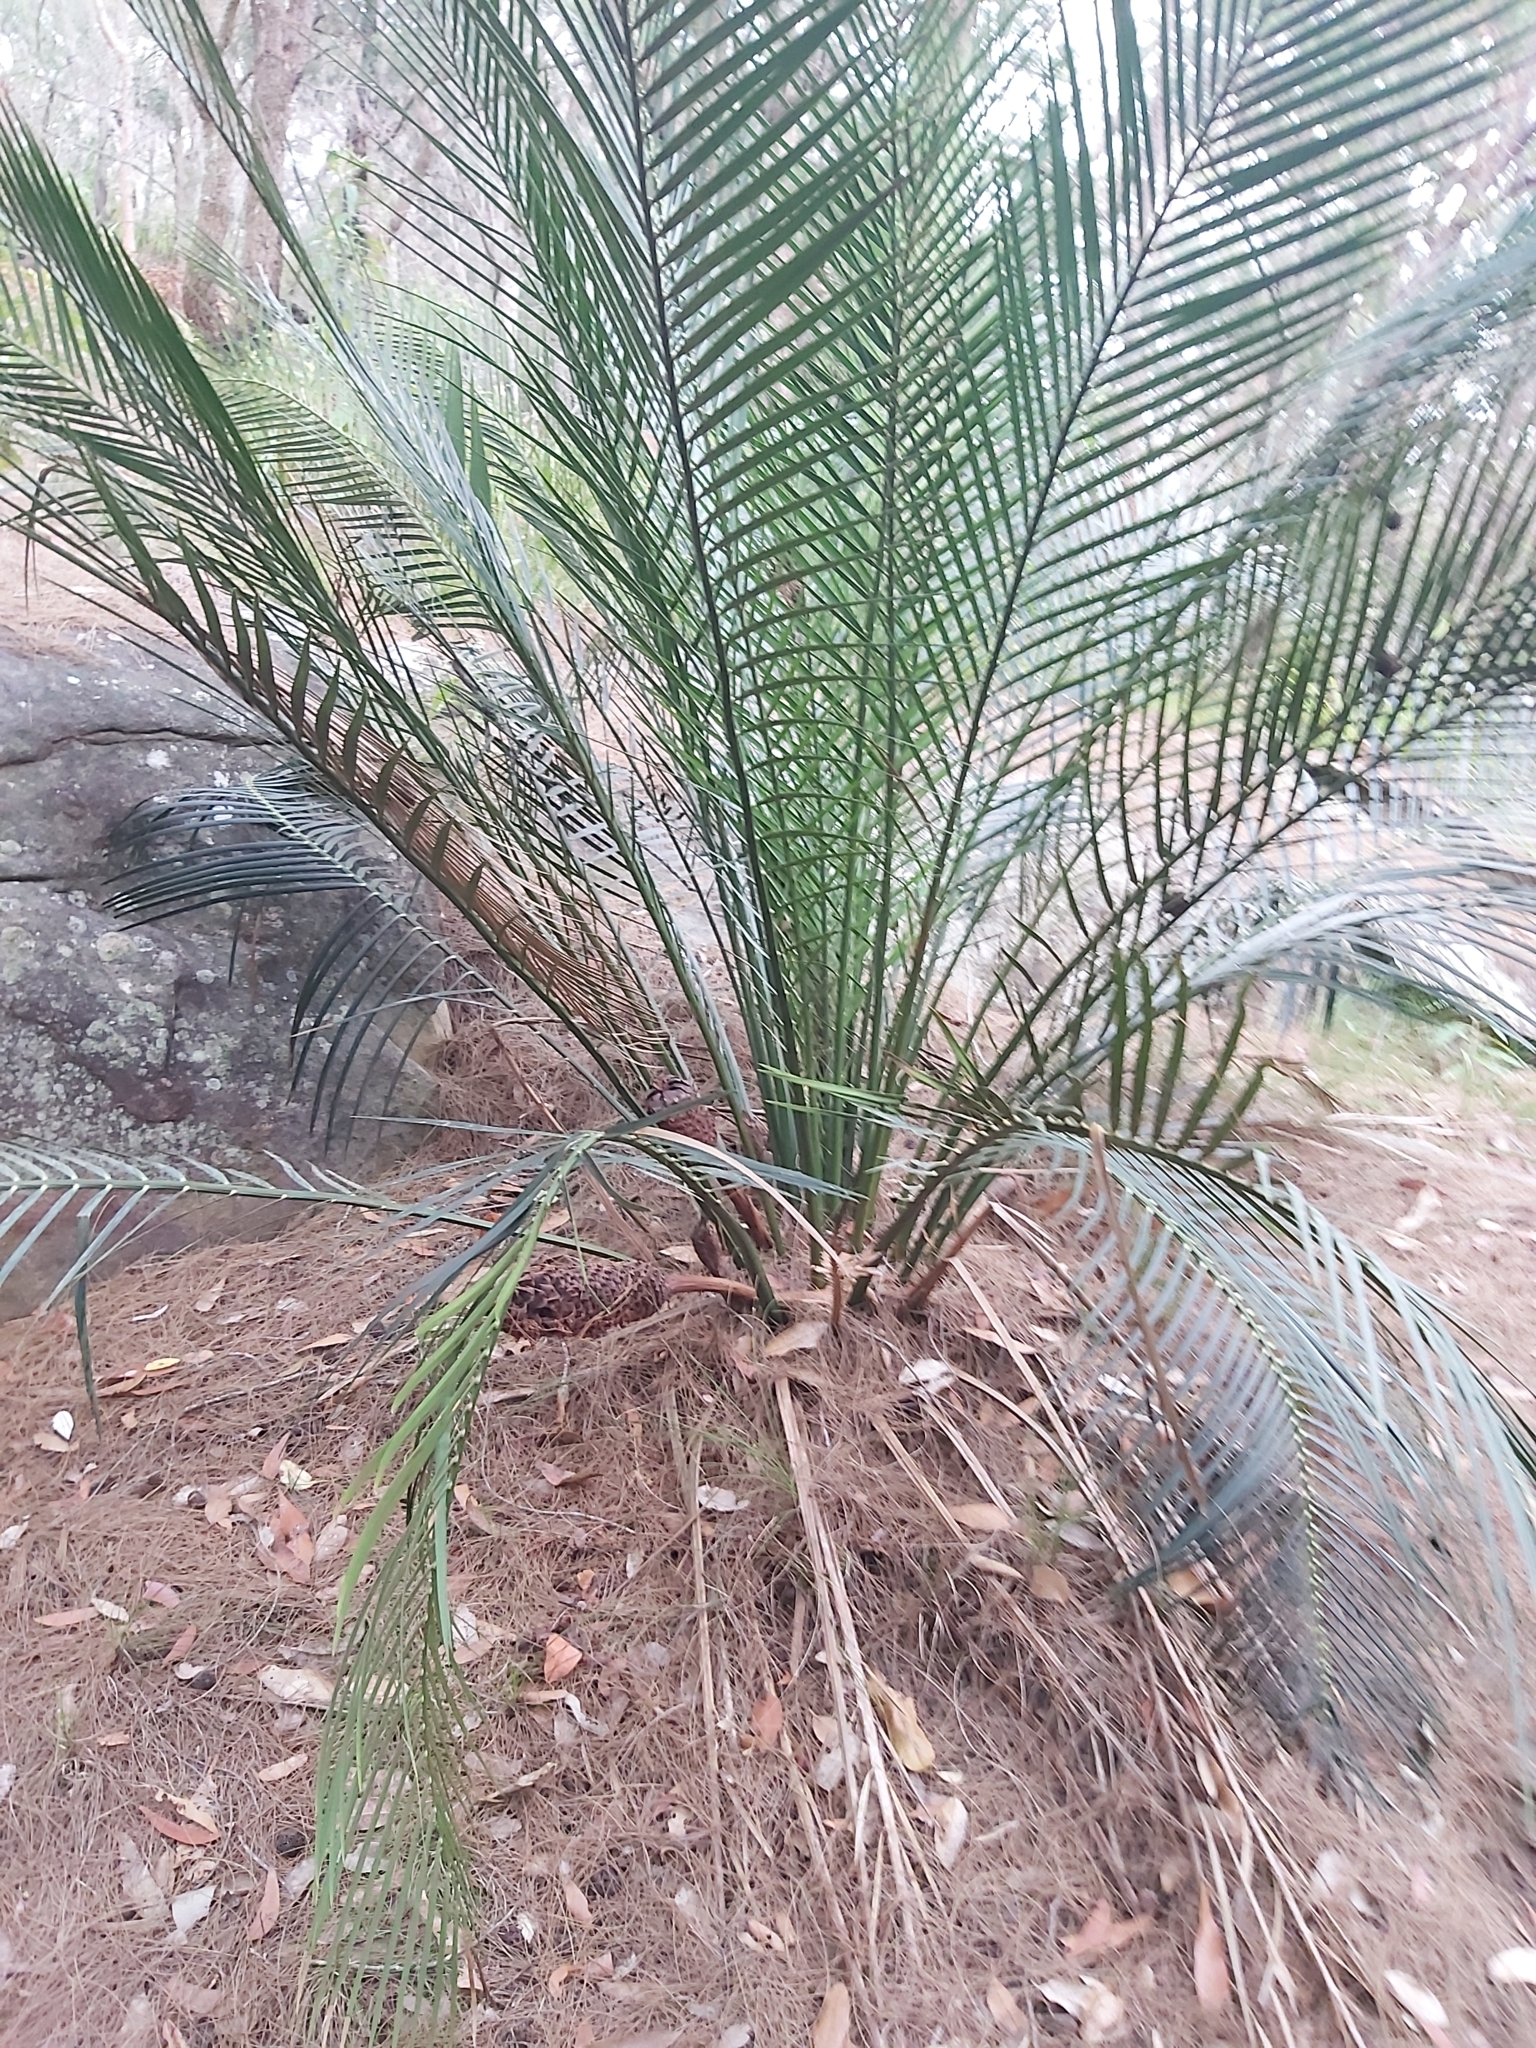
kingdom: Plantae
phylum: Tracheophyta
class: Cycadopsida
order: Cycadales
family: Zamiaceae
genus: Macrozamia
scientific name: Macrozamia communis
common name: Burrawong
